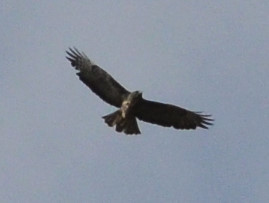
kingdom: Animalia
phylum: Chordata
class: Aves
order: Accipitriformes
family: Accipitridae
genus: Buteo
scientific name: Buteo buteo
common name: Common buzzard
